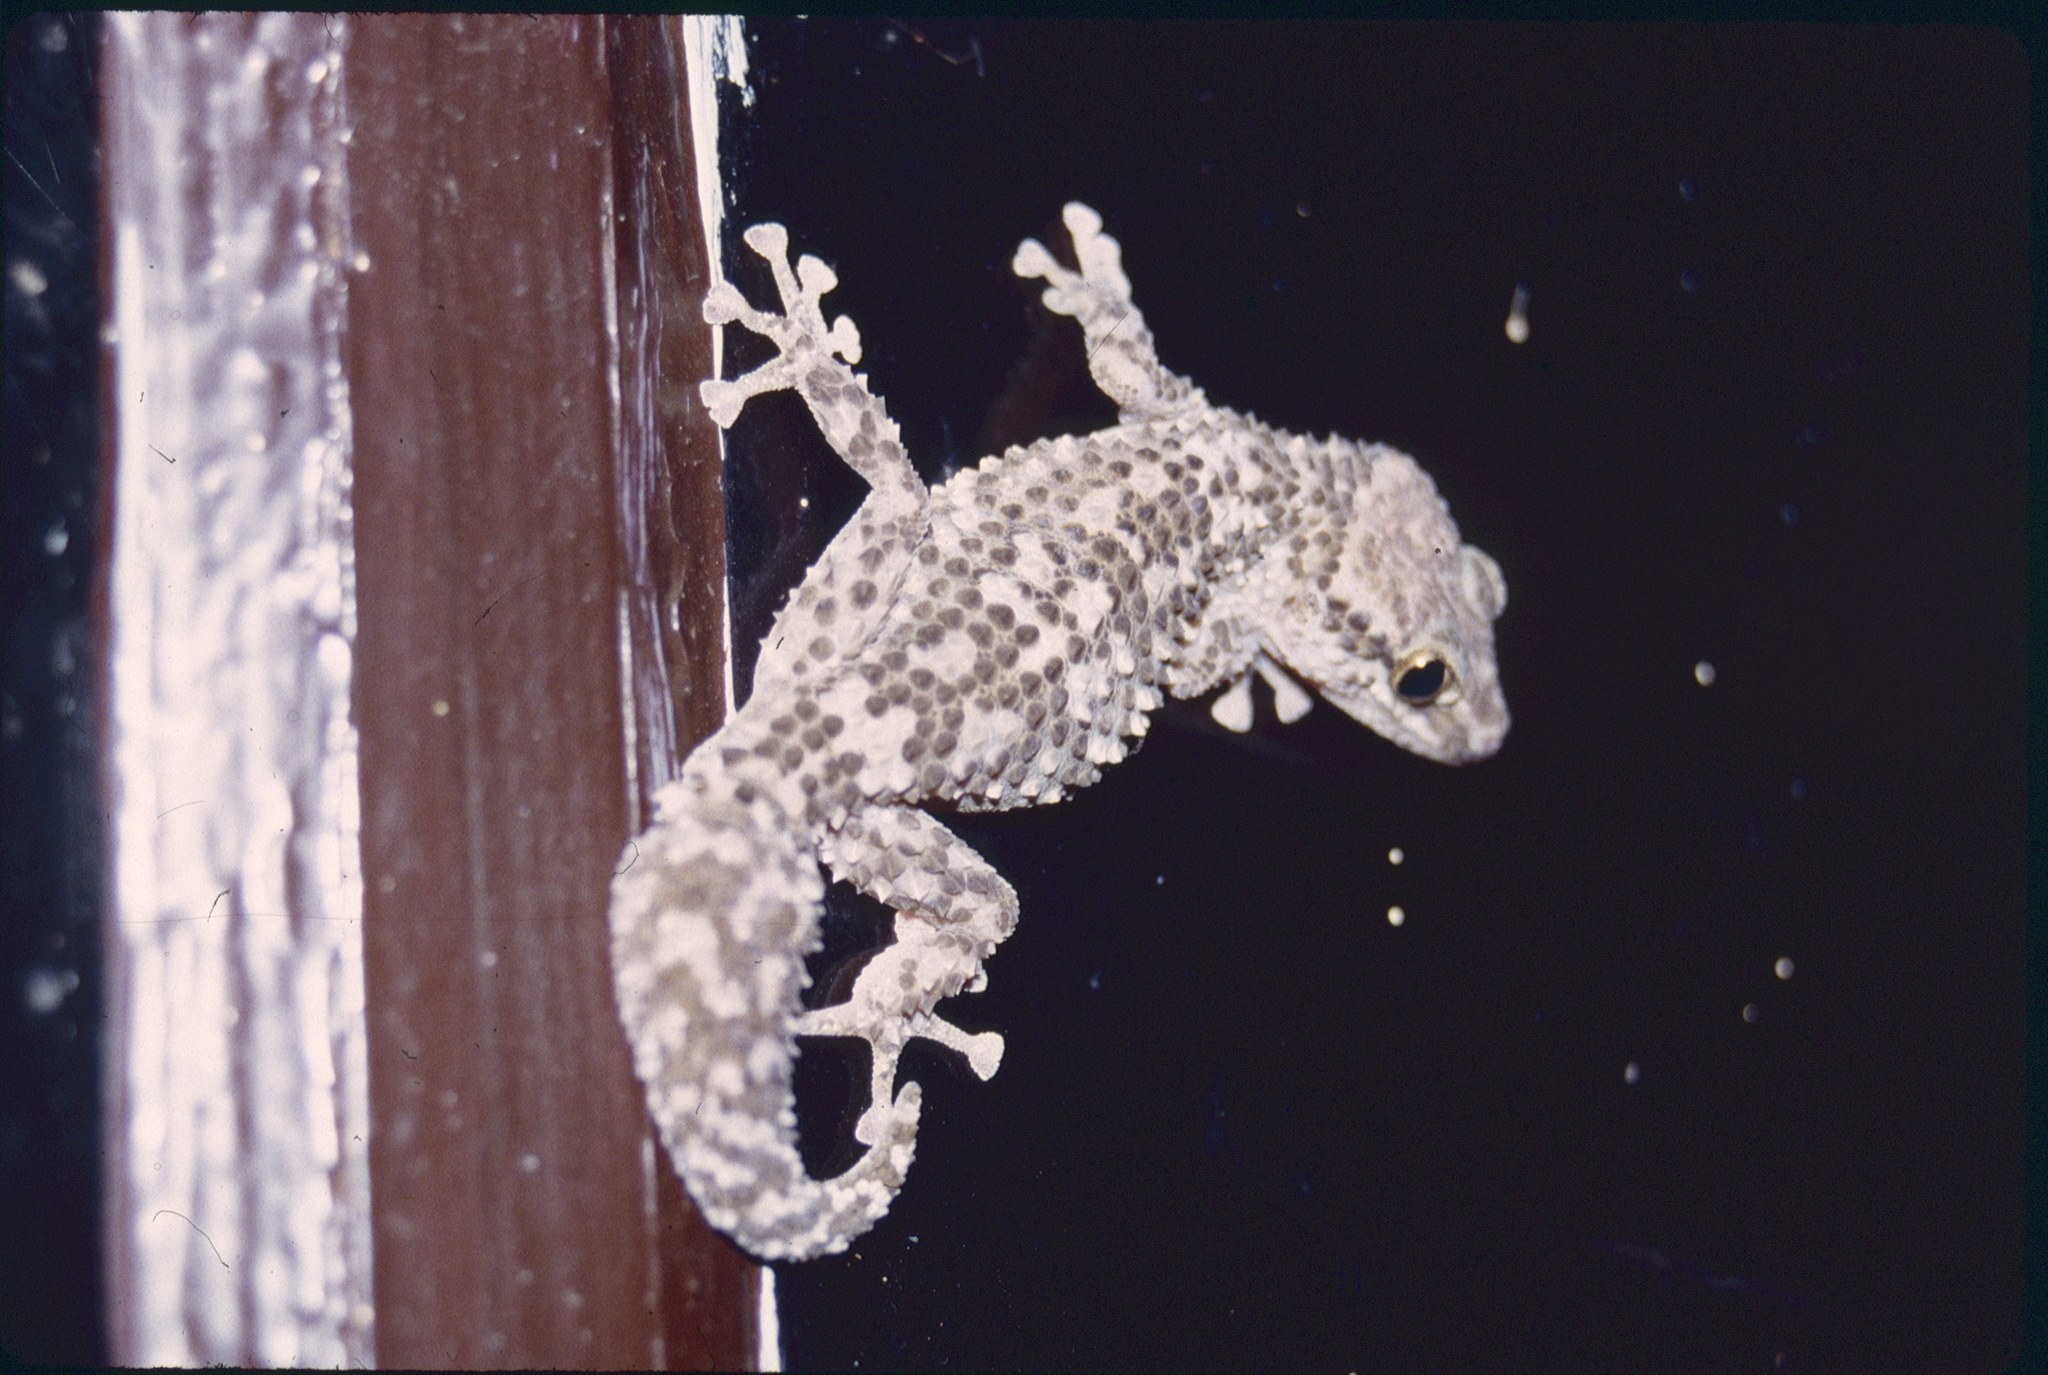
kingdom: Animalia
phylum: Chordata
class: Squamata
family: Gekkonidae
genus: Paroedura
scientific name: Paroedura bastardi
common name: Mocquard's madagascar ground gecko
